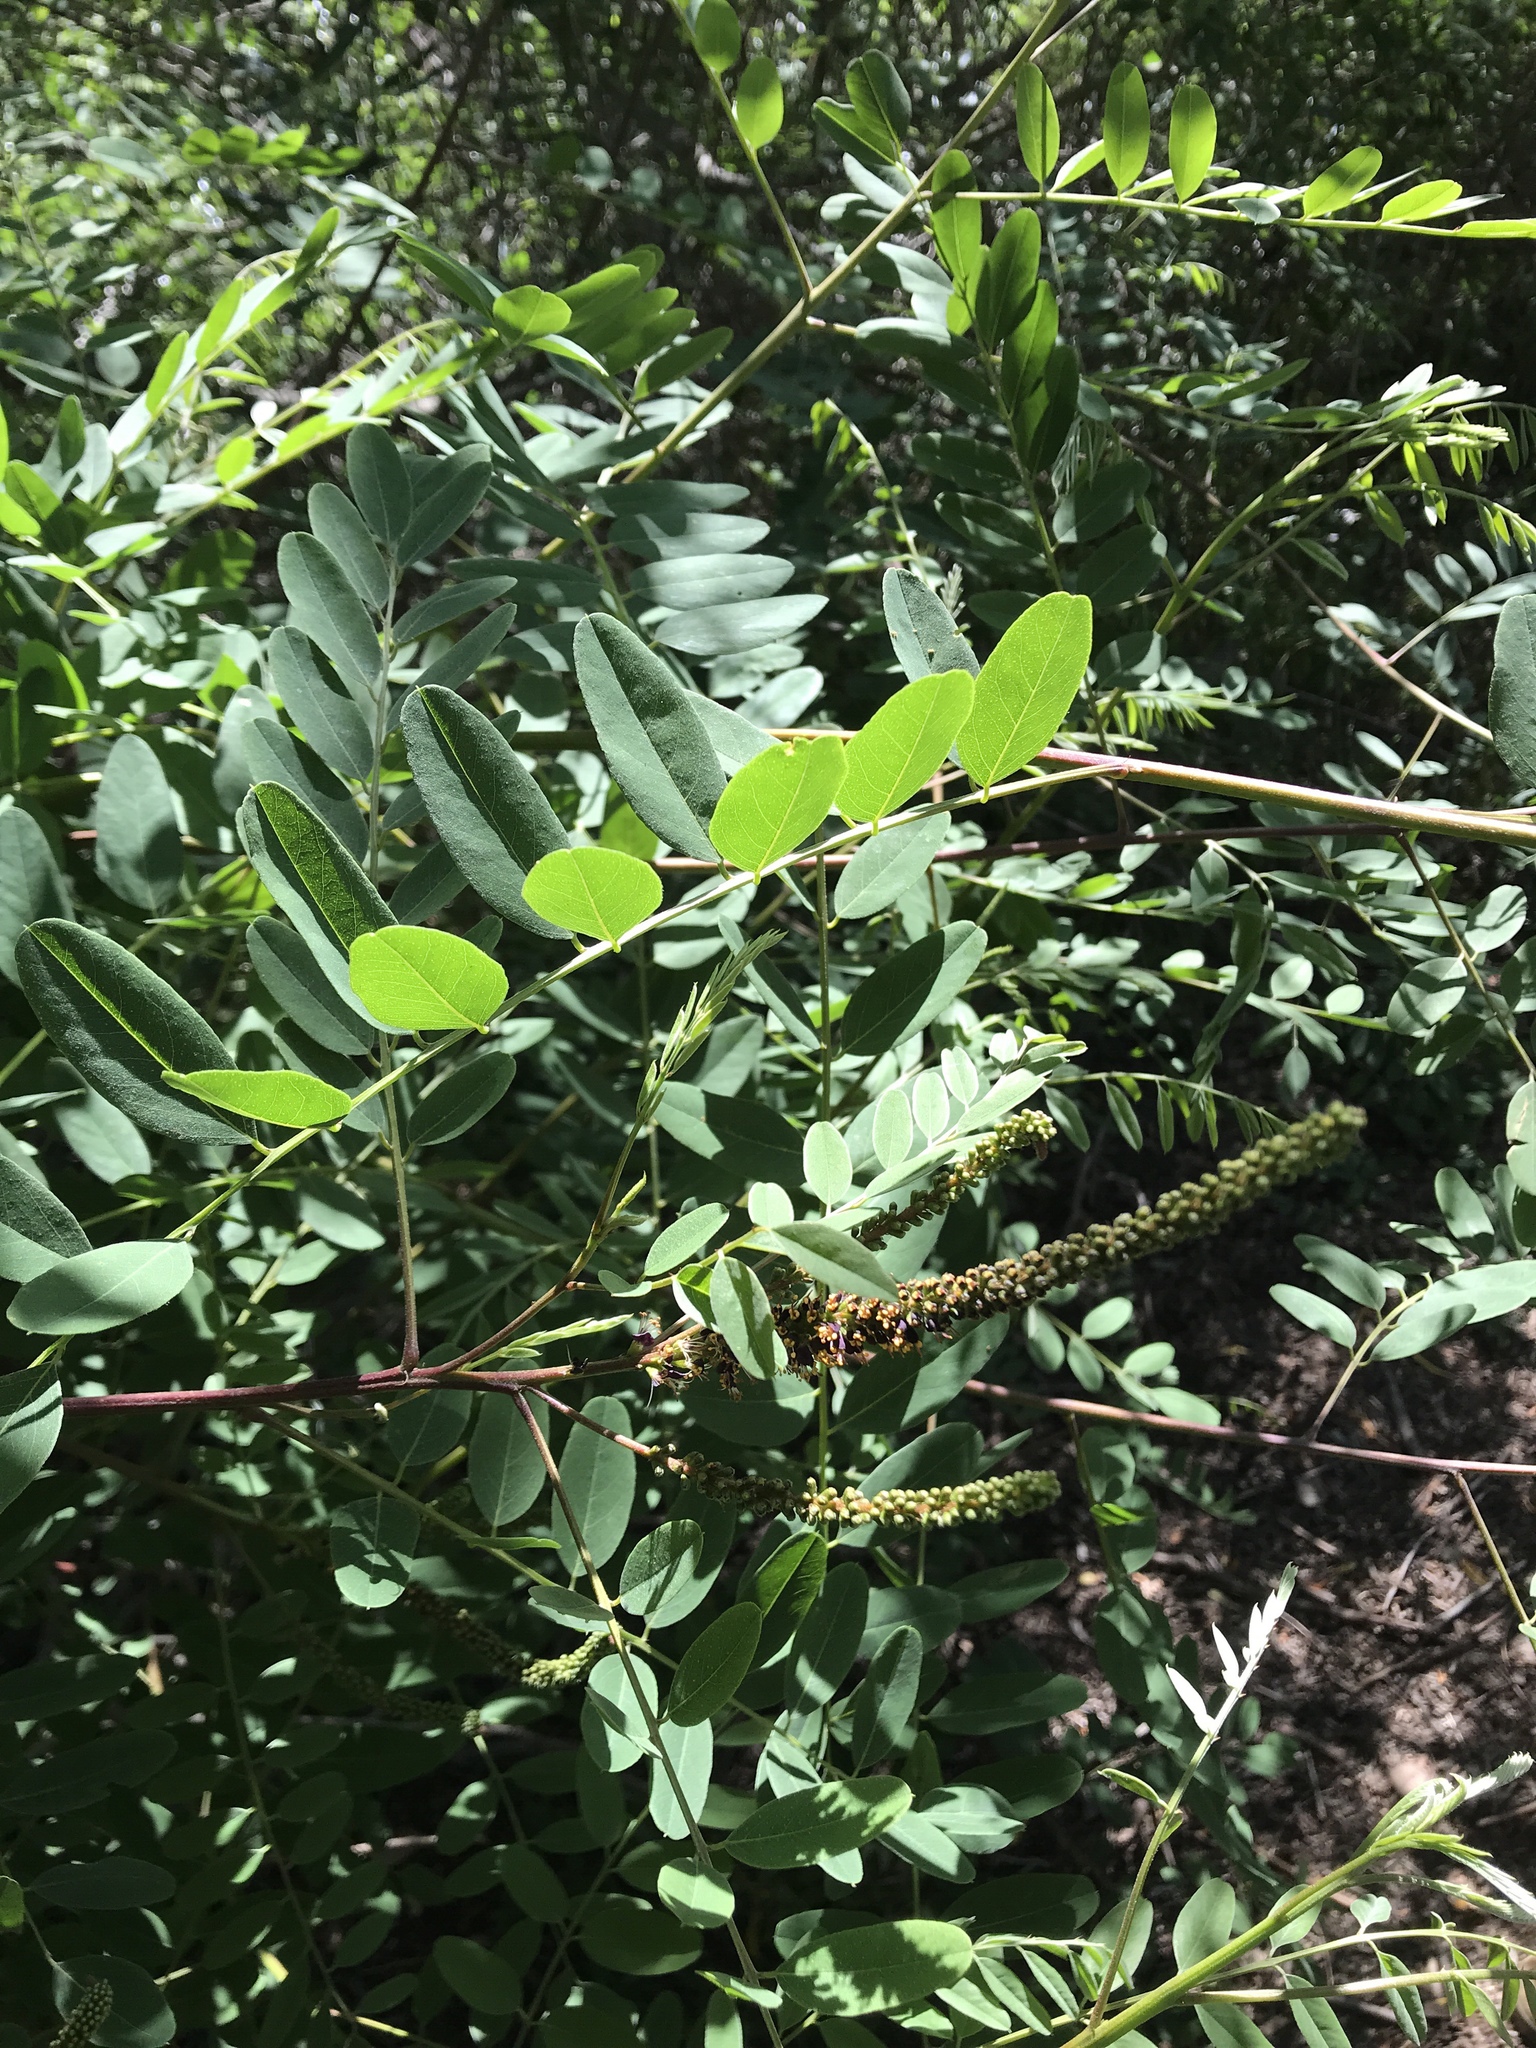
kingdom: Plantae
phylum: Tracheophyta
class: Magnoliopsida
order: Fabales
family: Fabaceae
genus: Amorpha
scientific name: Amorpha fruticosa
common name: False indigo
